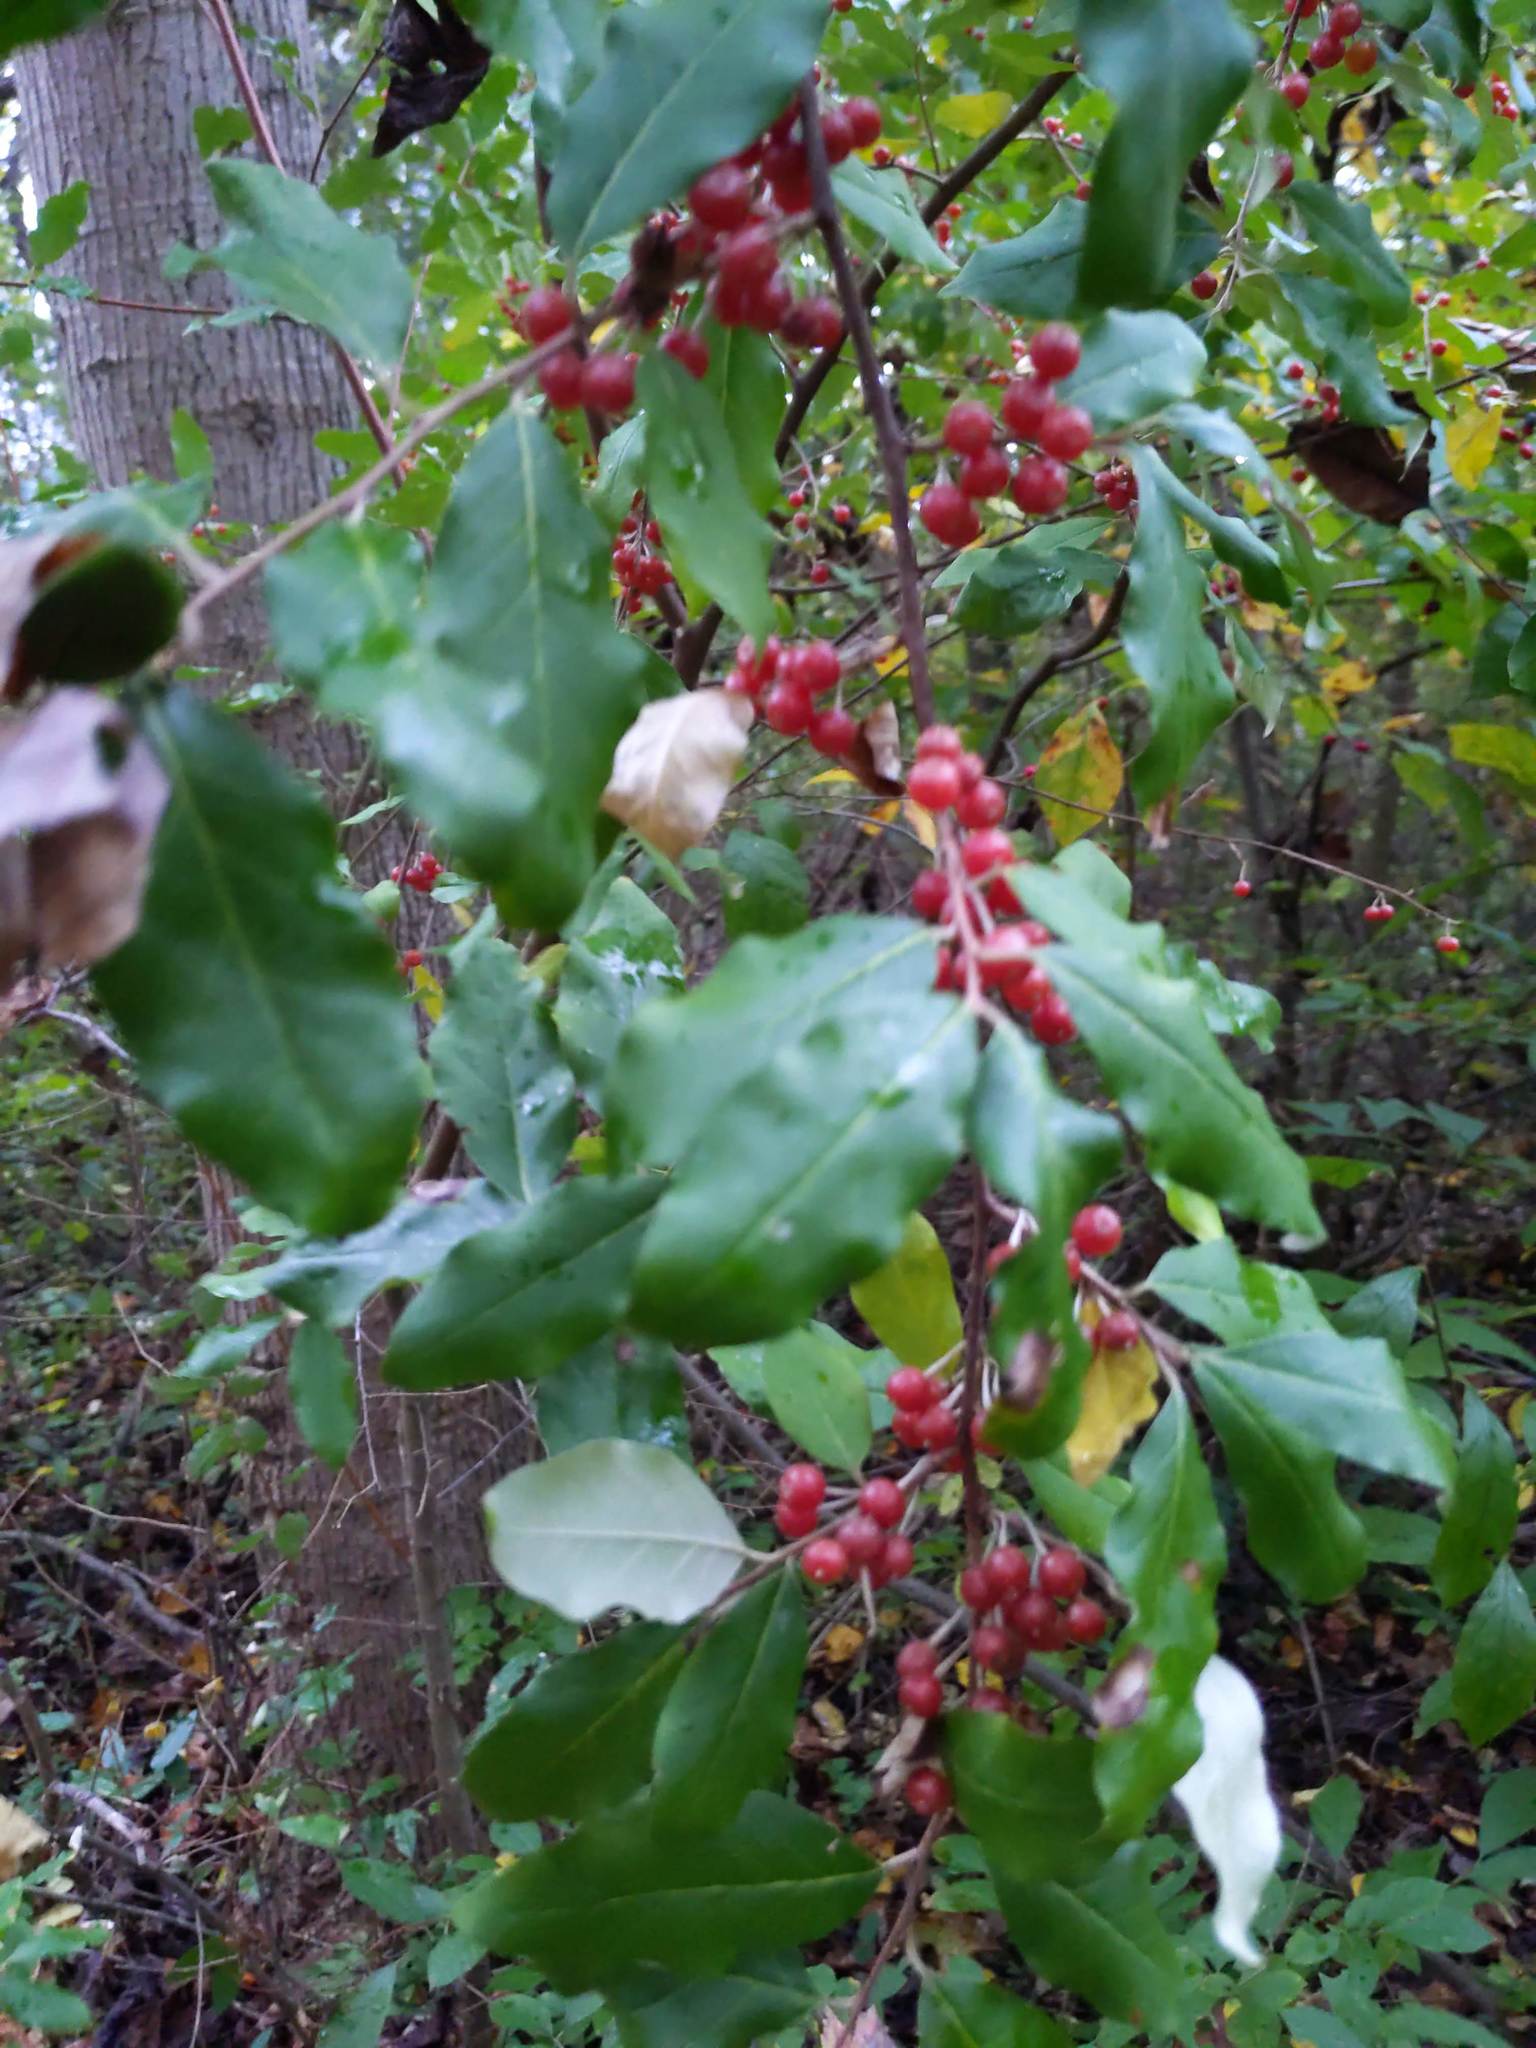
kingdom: Plantae
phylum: Tracheophyta
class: Magnoliopsida
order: Rosales
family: Elaeagnaceae
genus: Elaeagnus
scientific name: Elaeagnus umbellata
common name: Autumn olive
